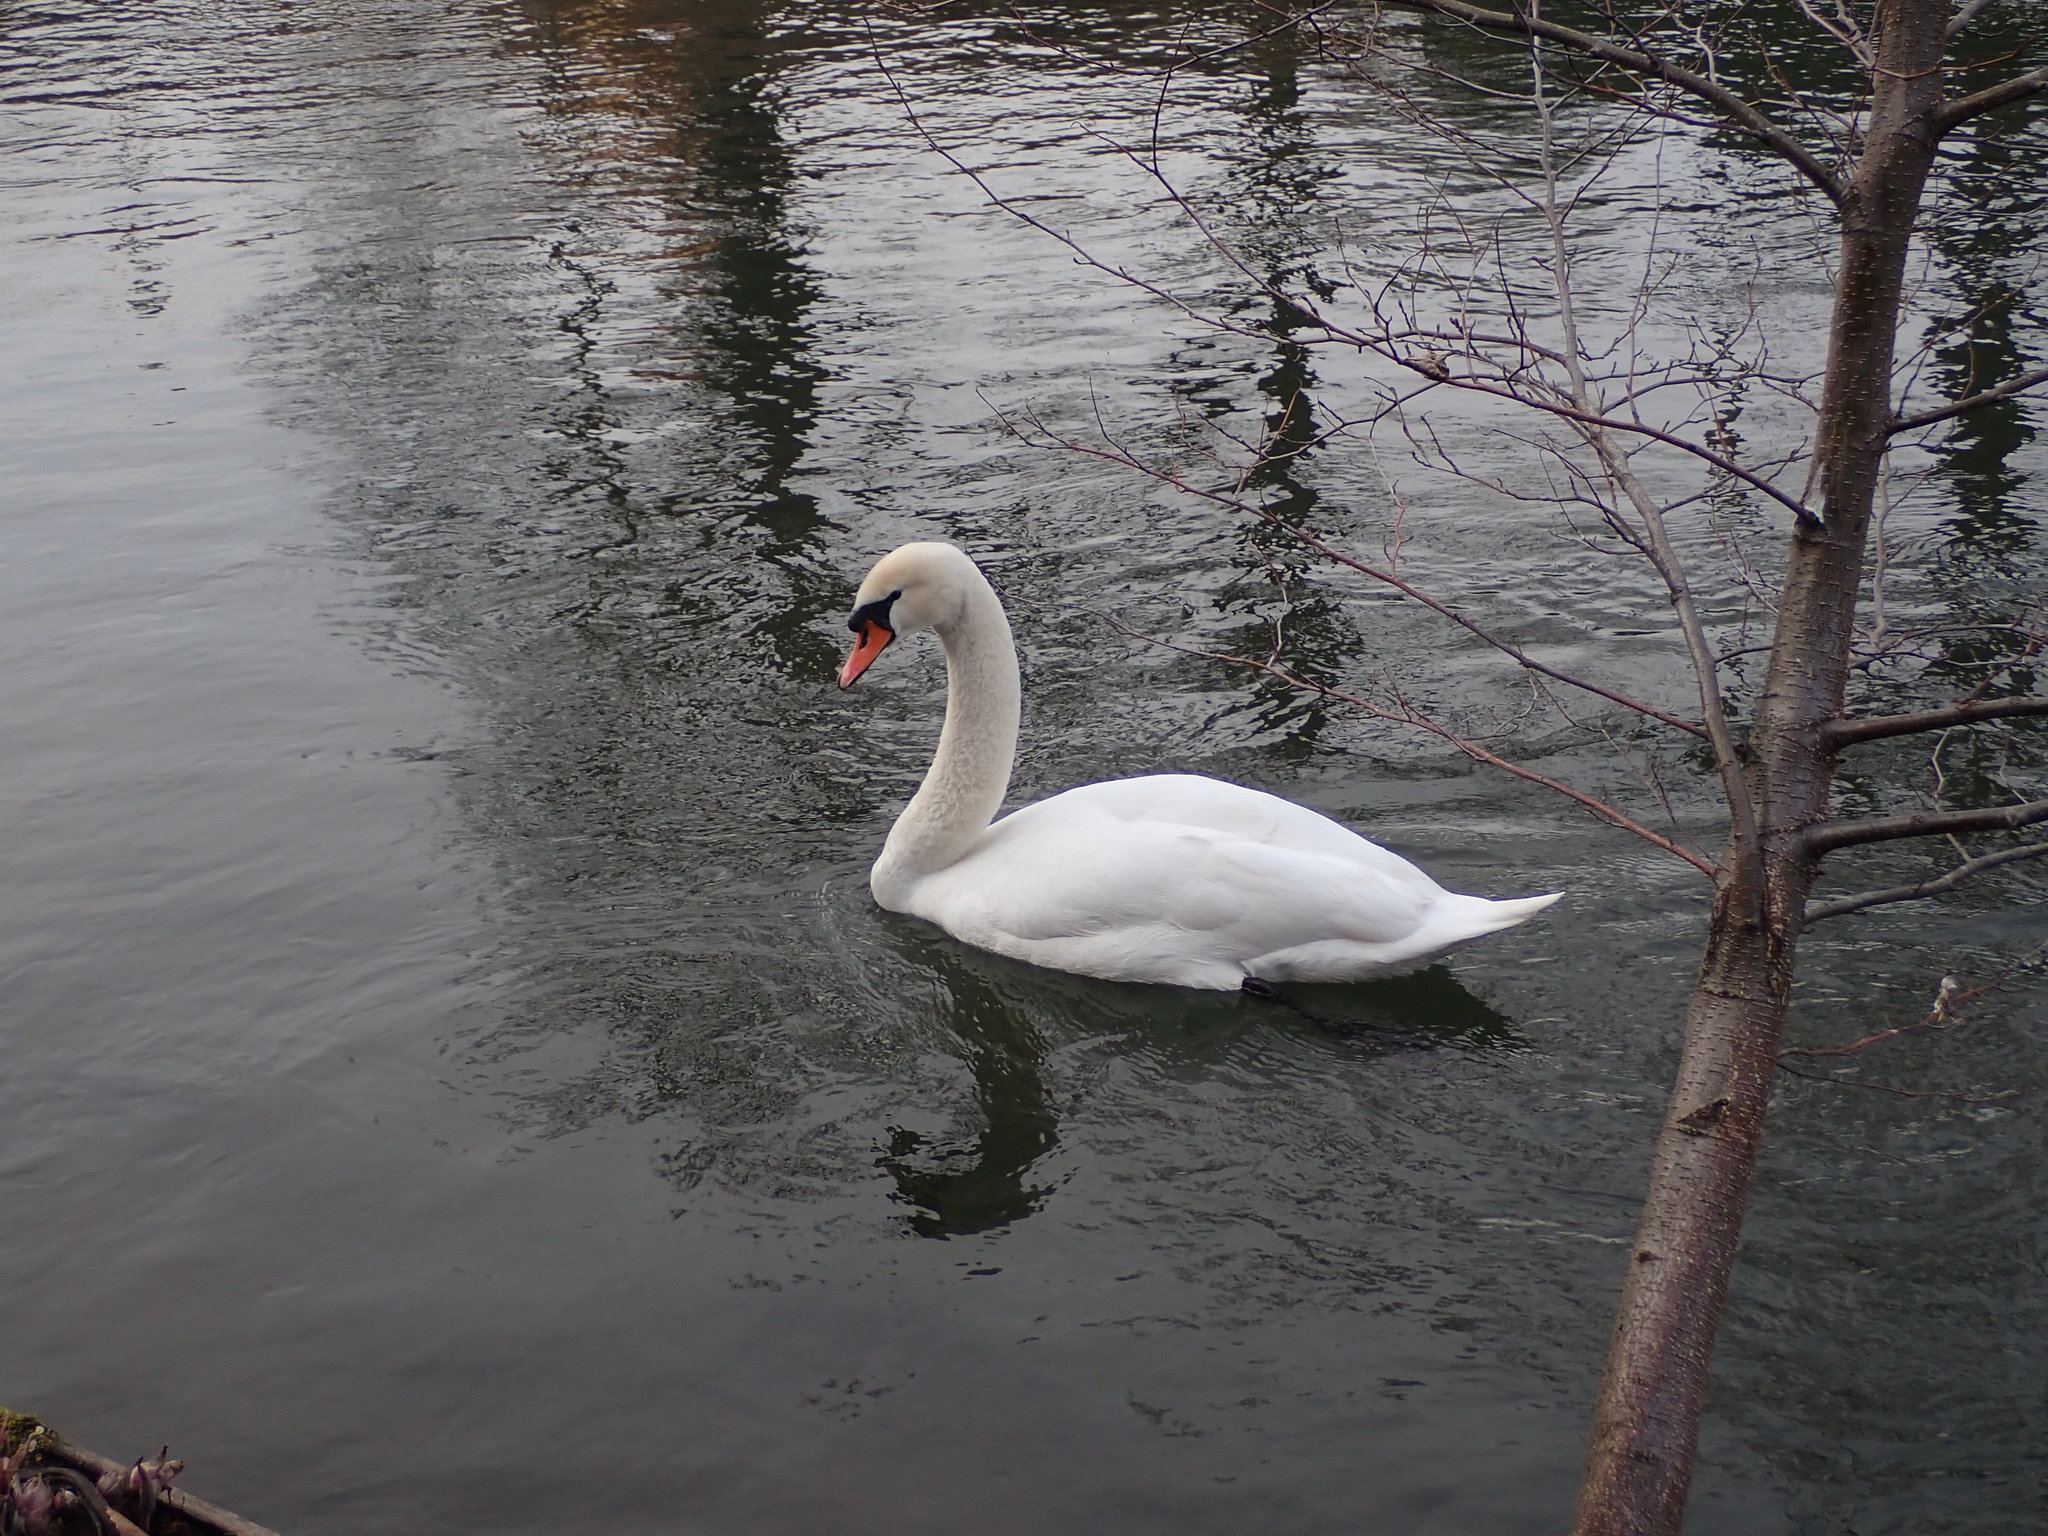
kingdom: Animalia
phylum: Chordata
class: Aves
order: Anseriformes
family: Anatidae
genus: Cygnus
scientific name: Cygnus olor
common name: Mute swan
